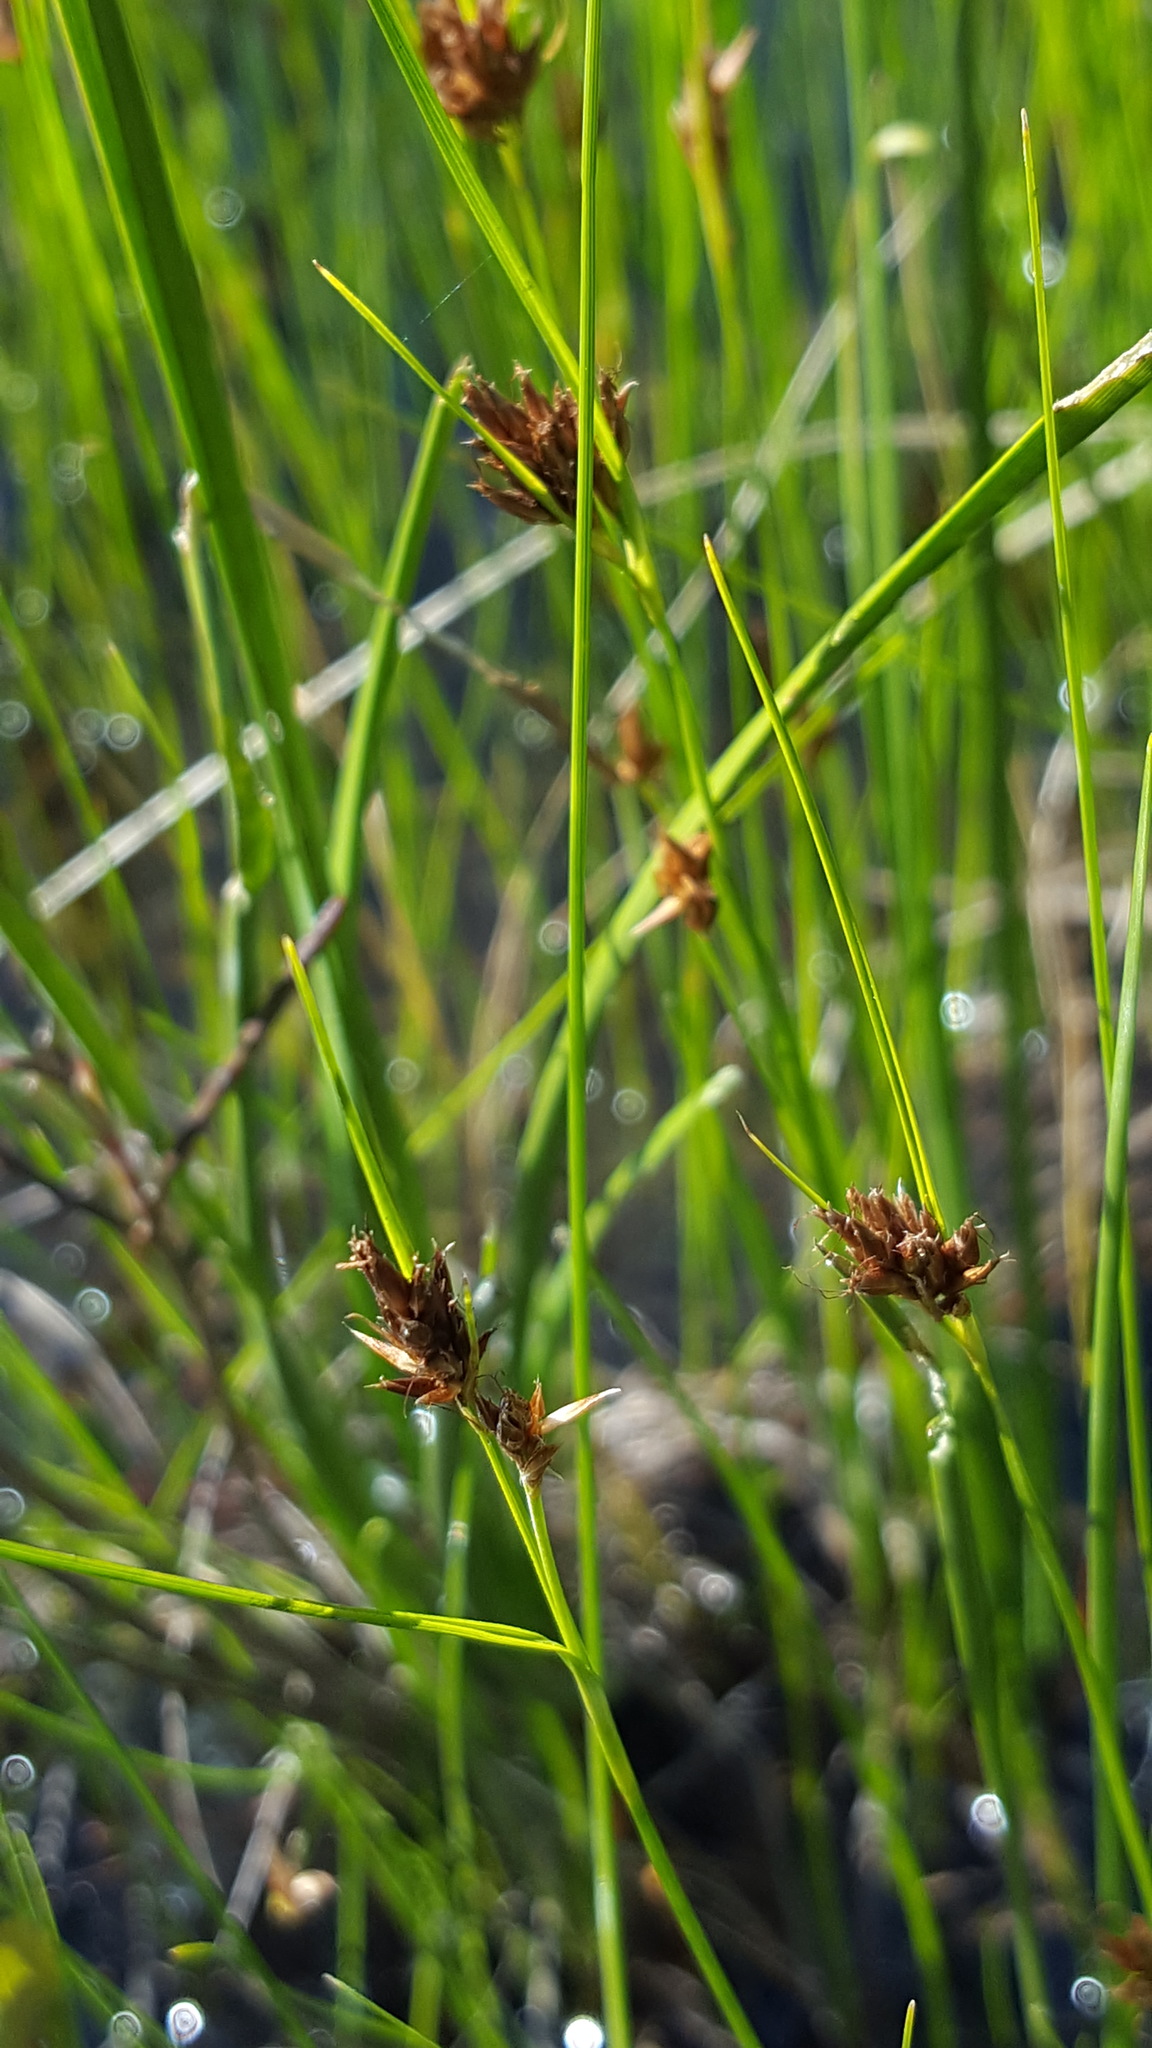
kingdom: Plantae
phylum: Tracheophyta
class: Liliopsida
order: Poales
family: Cyperaceae
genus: Rhynchospora
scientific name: Rhynchospora fusca
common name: Brown beak-sedge
